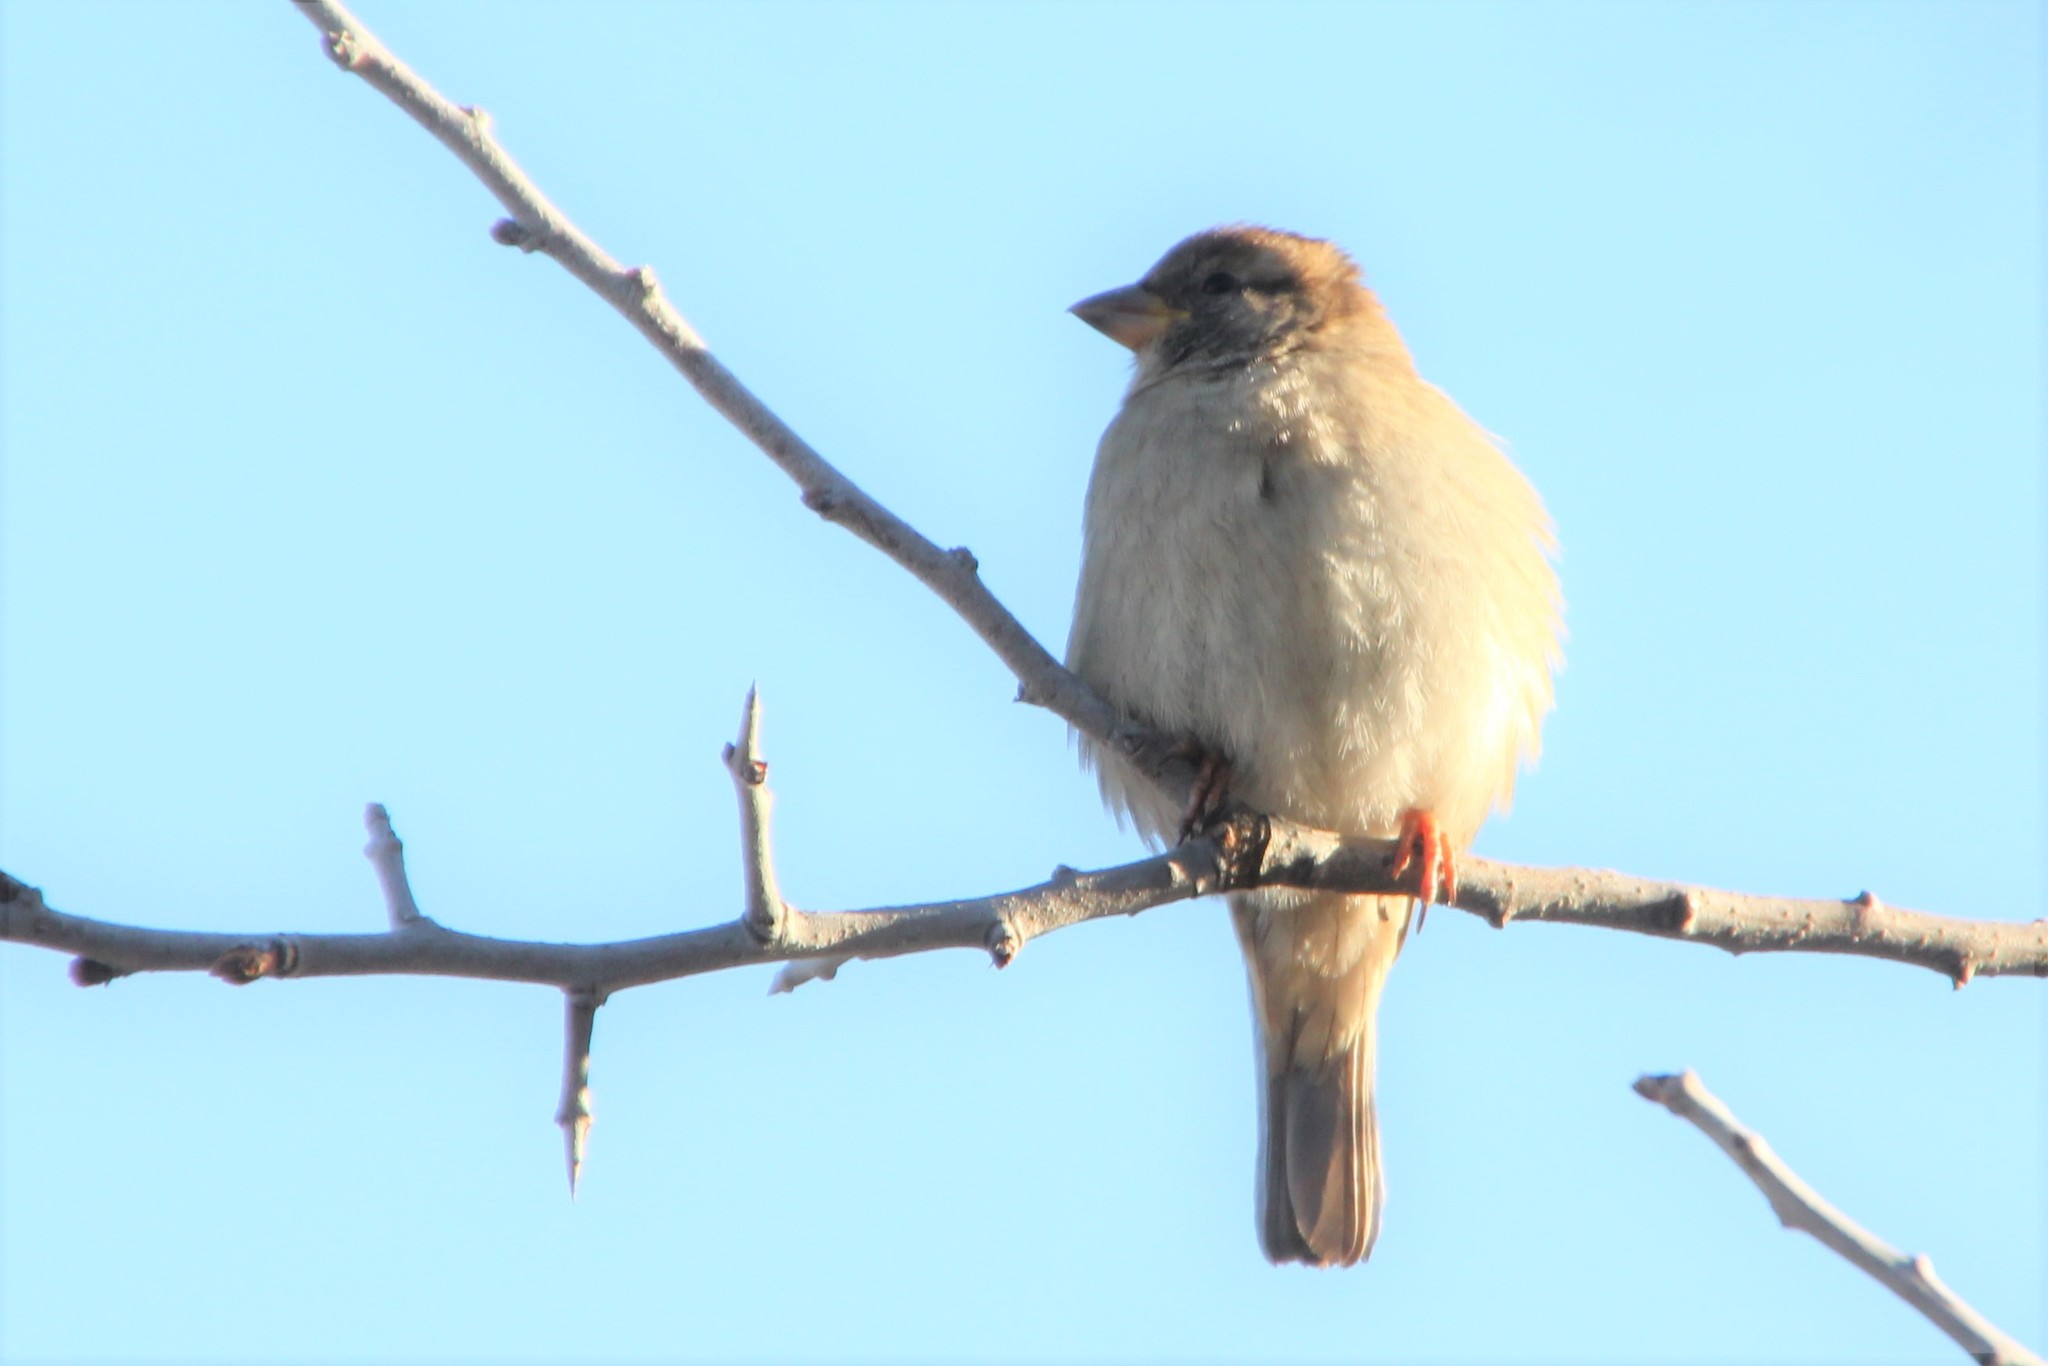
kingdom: Animalia
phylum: Chordata
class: Aves
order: Passeriformes
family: Passeridae
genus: Passer
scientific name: Passer domesticus
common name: House sparrow
